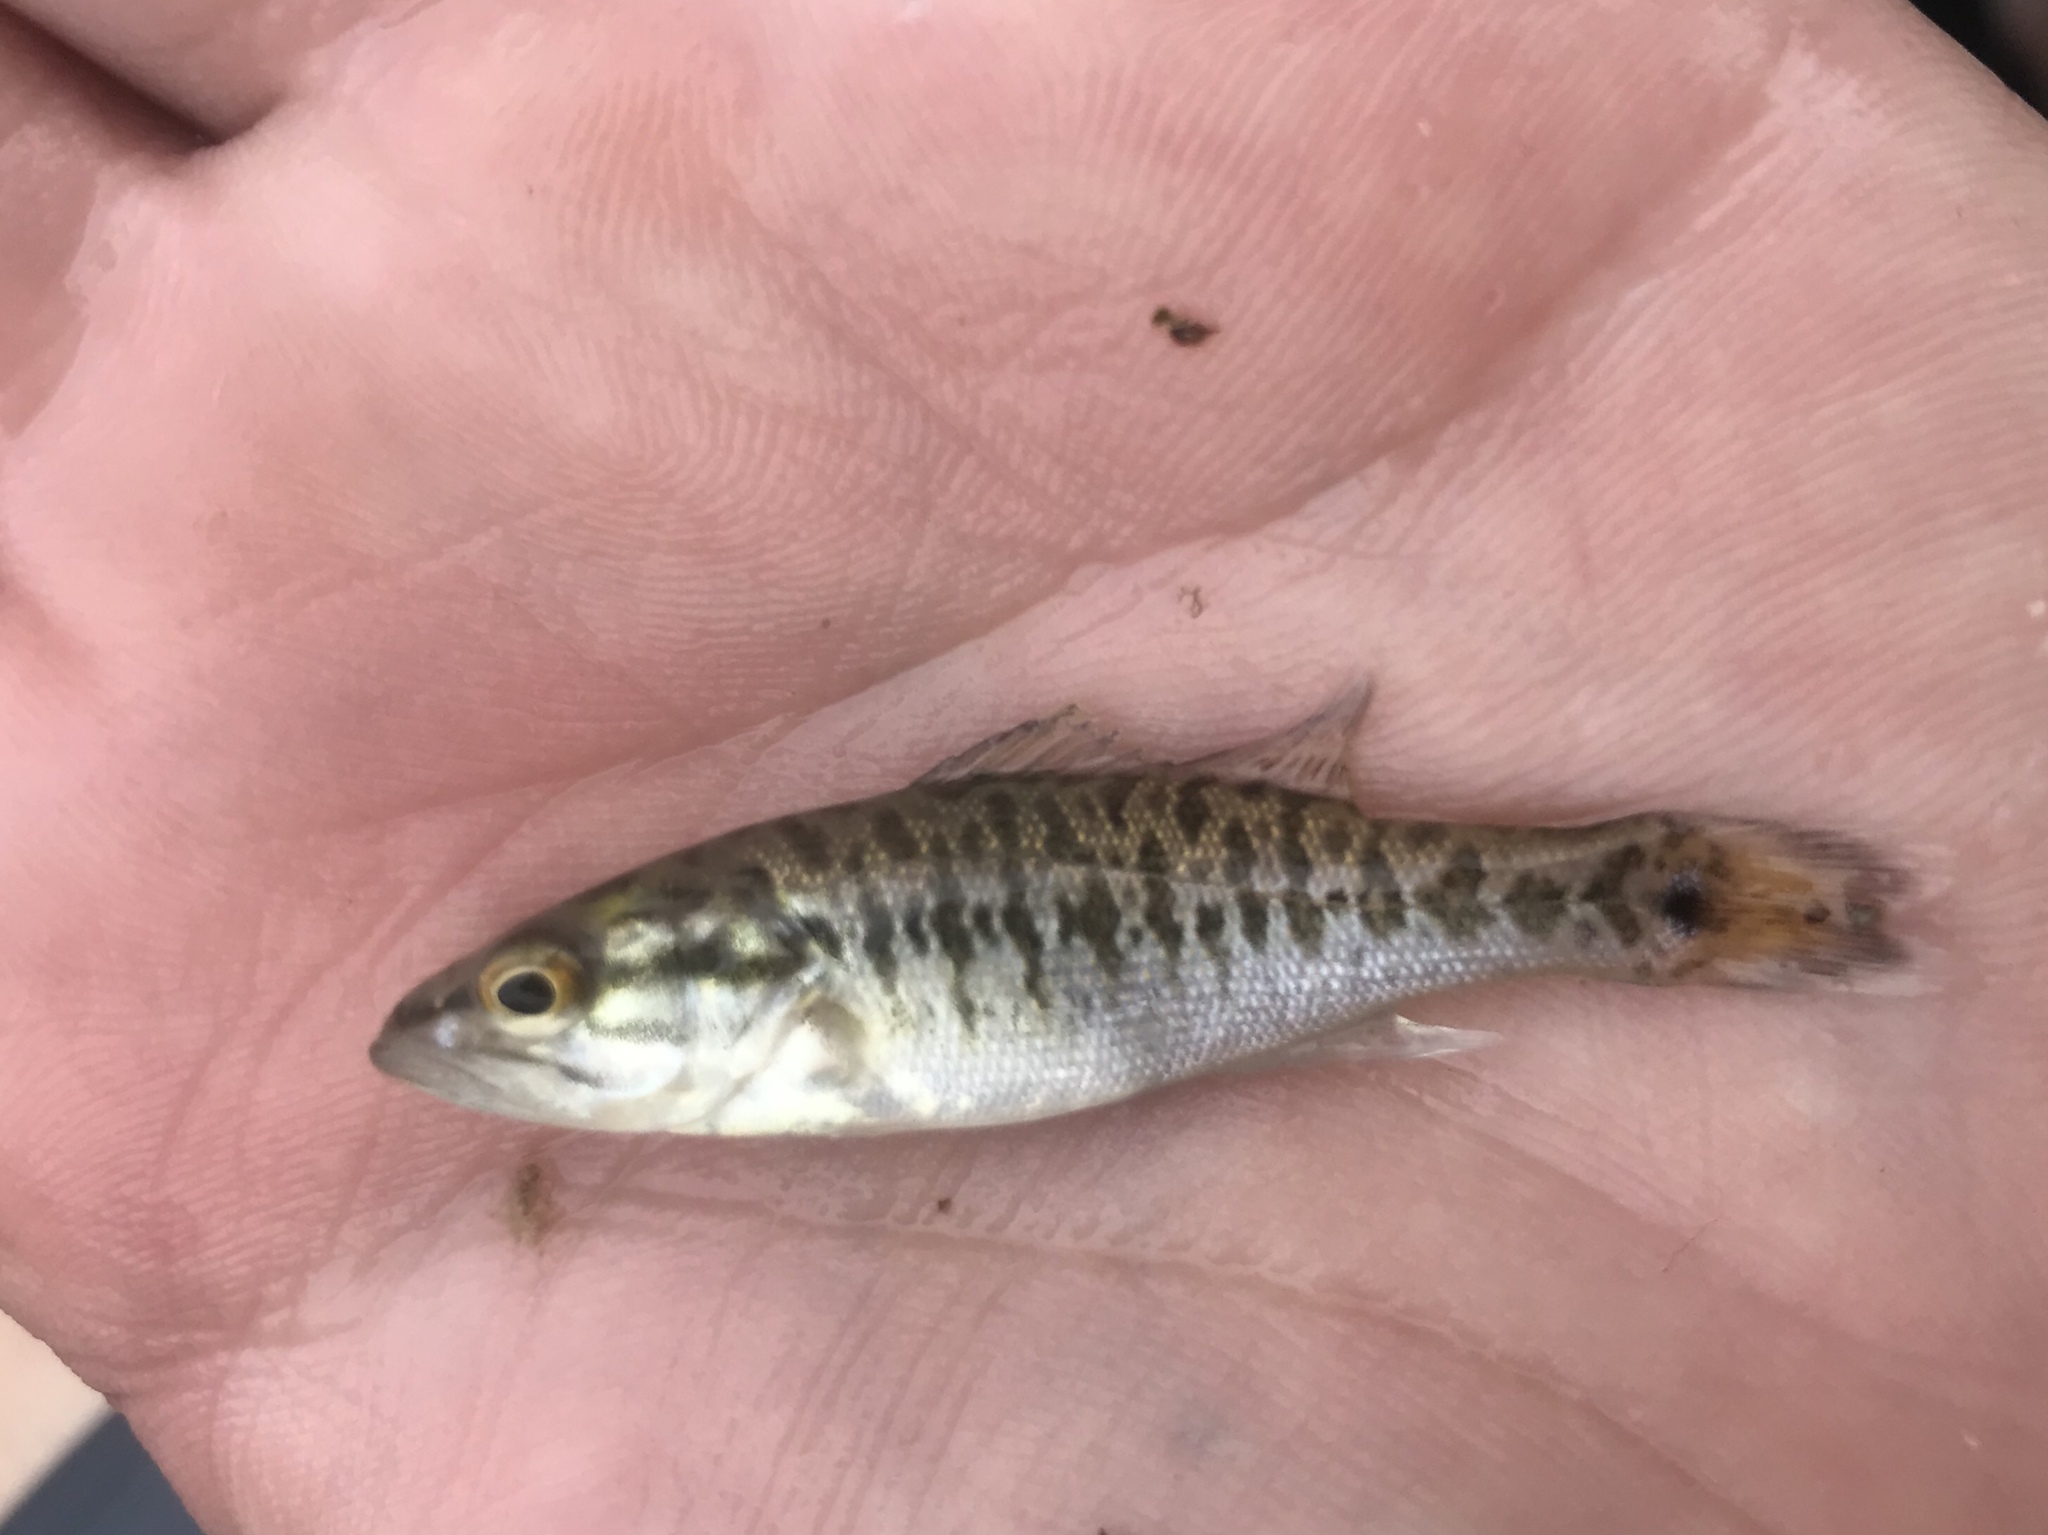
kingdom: Animalia
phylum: Chordata
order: Perciformes
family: Centrarchidae
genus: Micropterus
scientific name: Micropterus treculii
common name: Guadalupe bass
